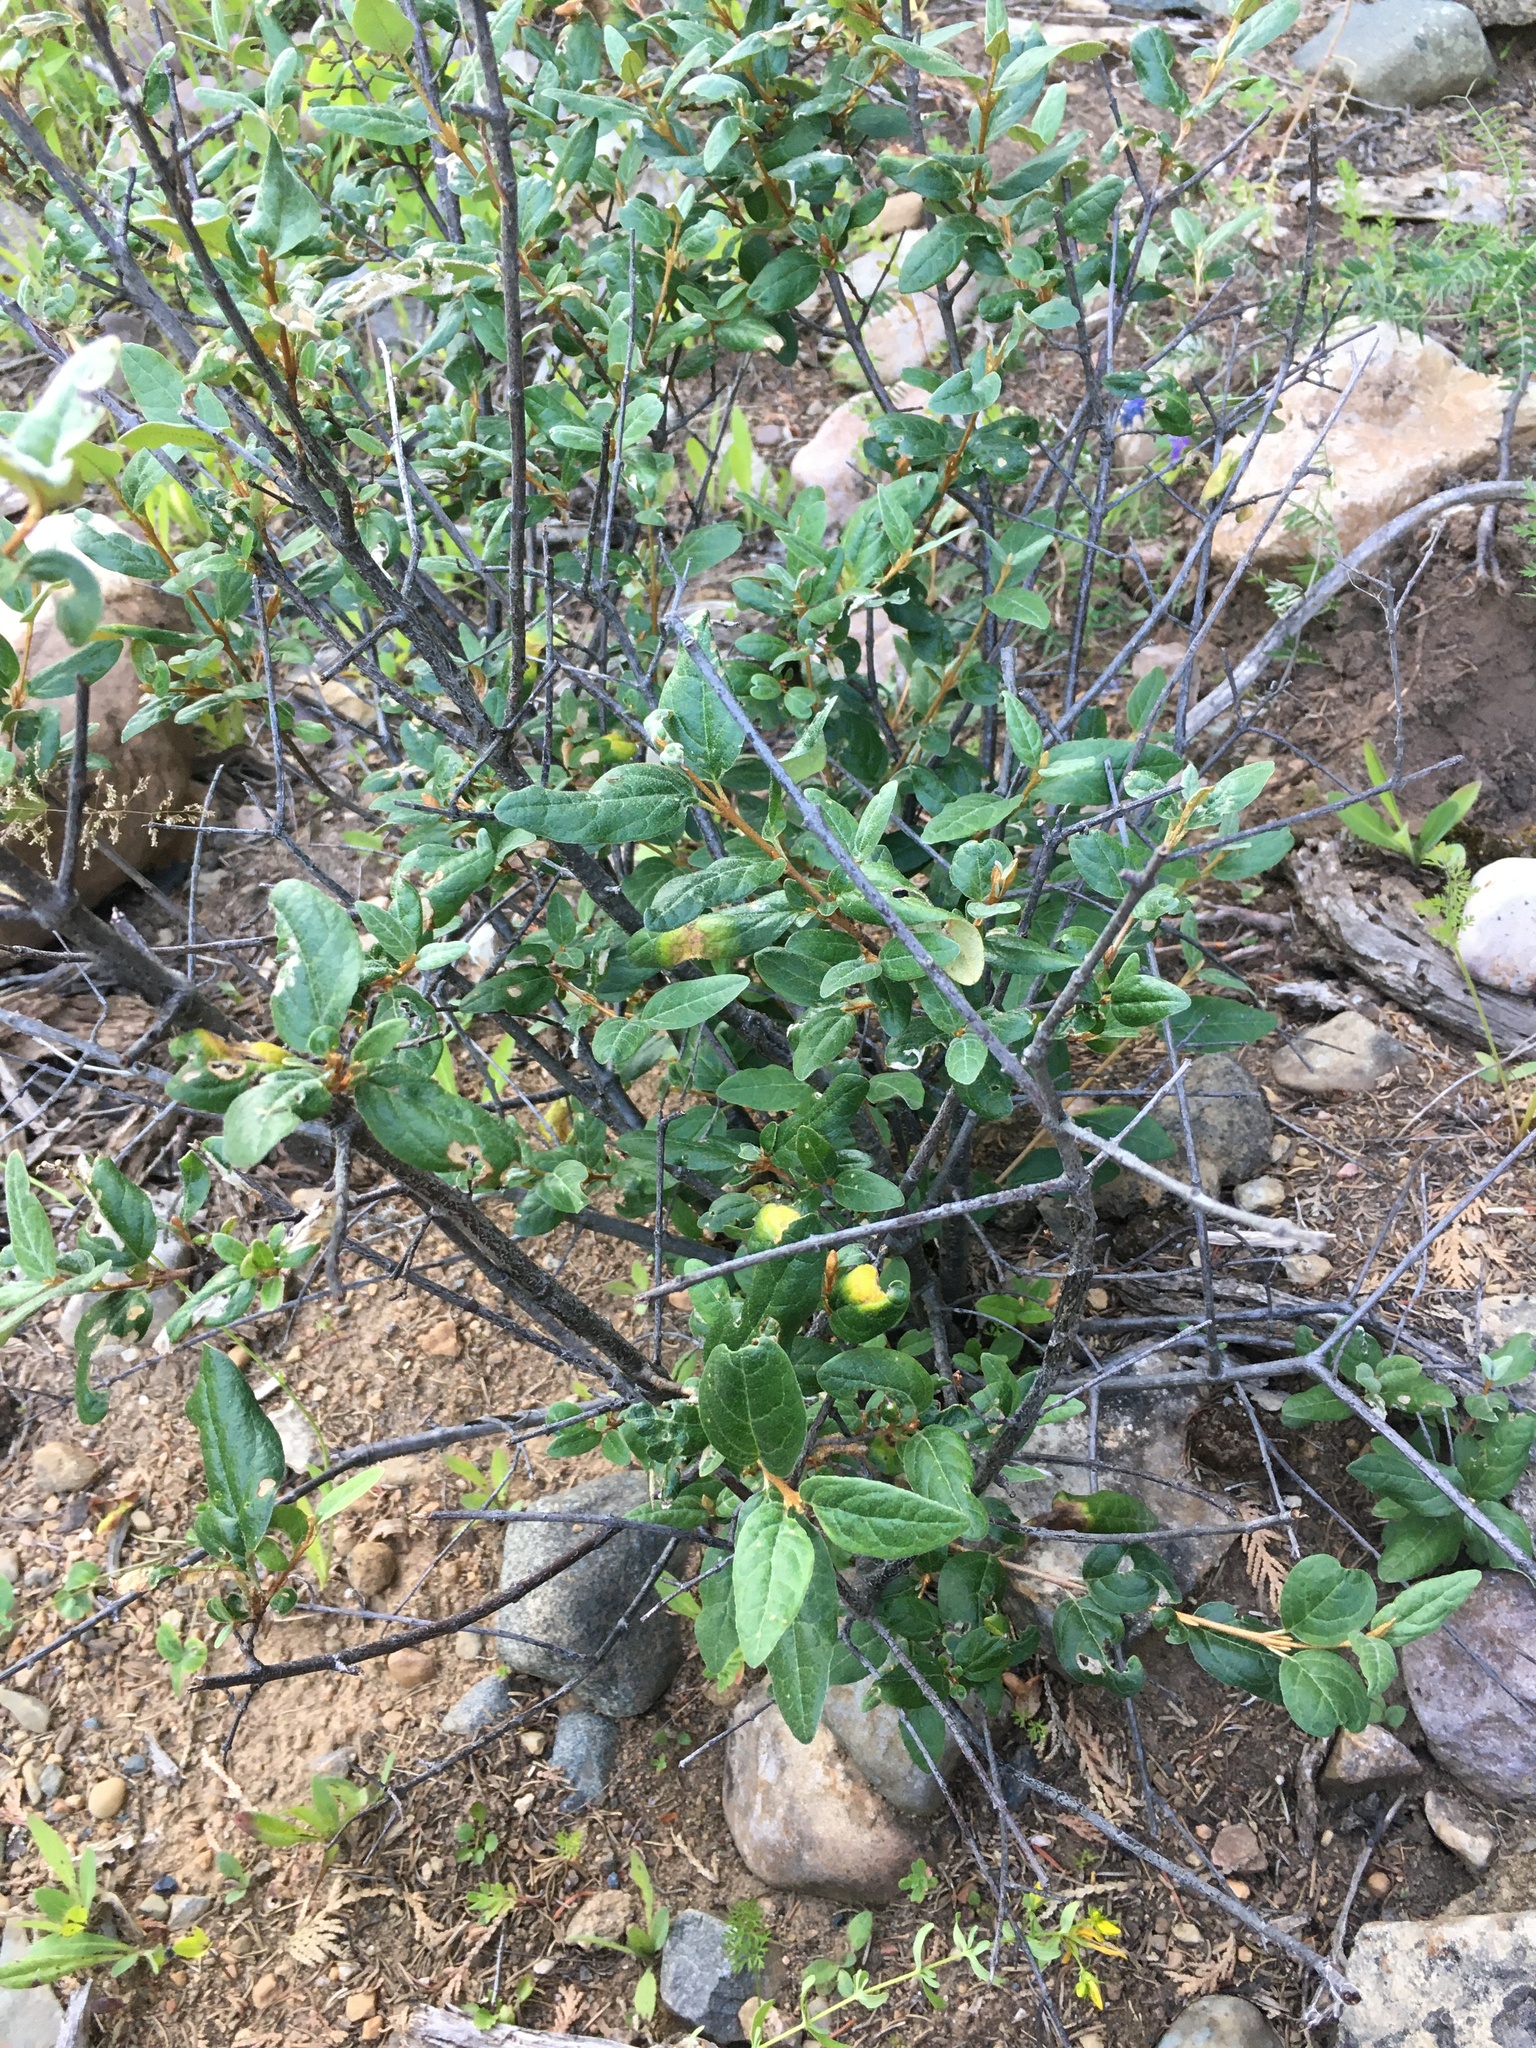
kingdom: Plantae
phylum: Tracheophyta
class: Magnoliopsida
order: Rosales
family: Elaeagnaceae
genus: Shepherdia
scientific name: Shepherdia canadensis
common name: Soapberry
